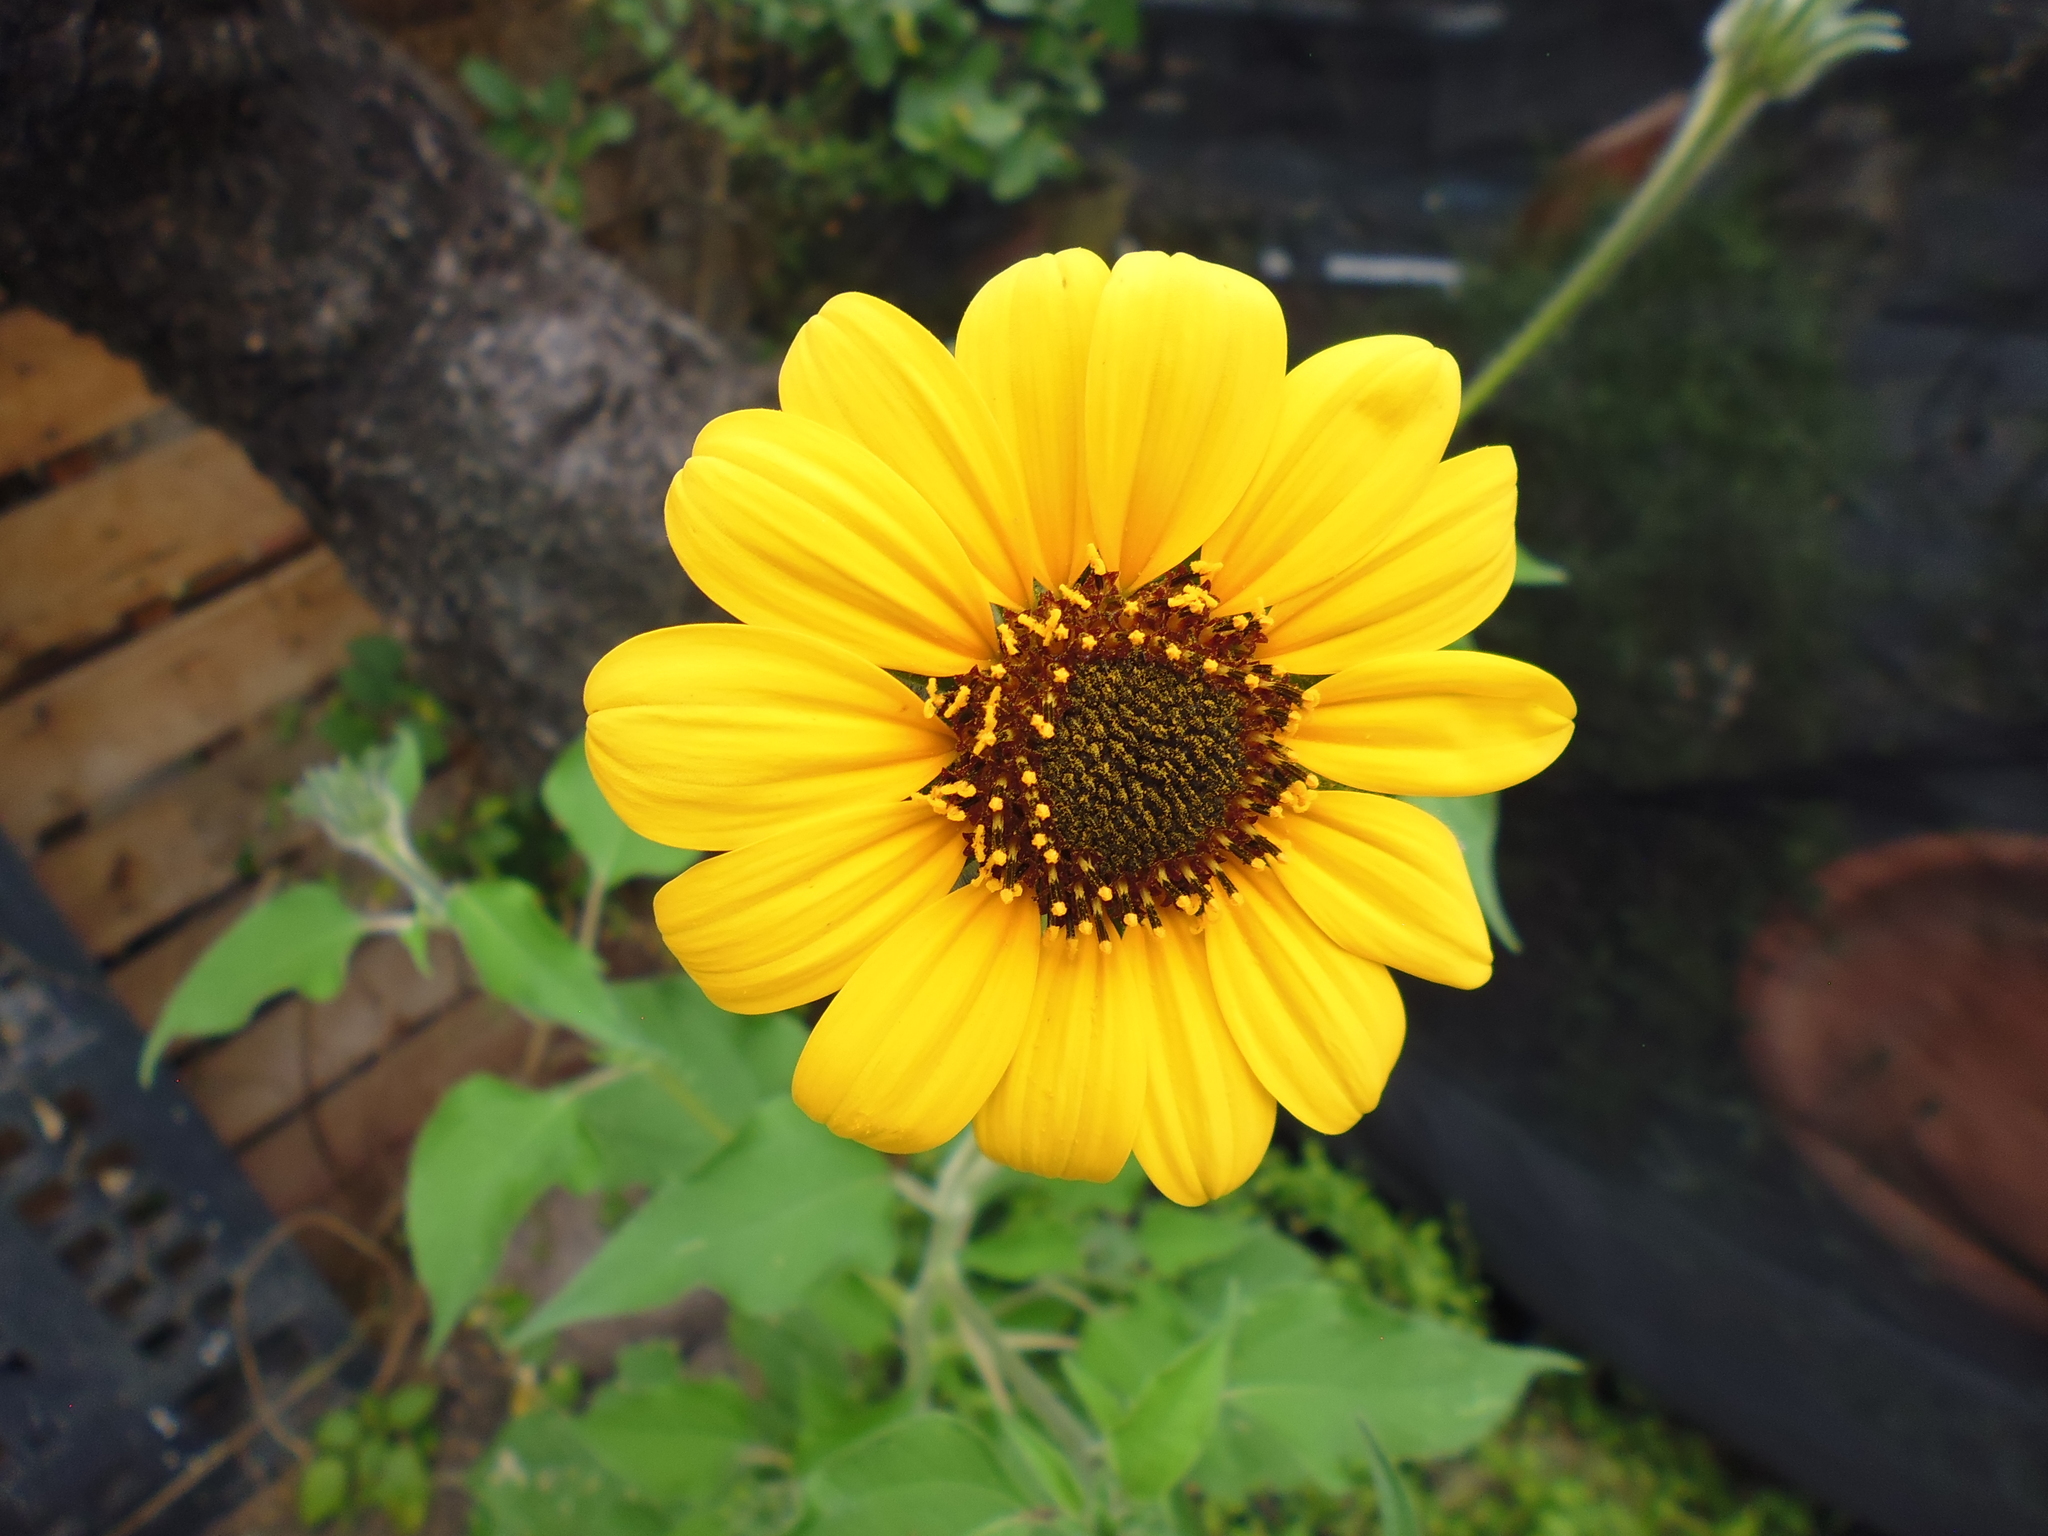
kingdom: Plantae
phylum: Tracheophyta
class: Magnoliopsida
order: Asterales
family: Asteraceae
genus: Tithonia
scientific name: Tithonia tubaeformis
